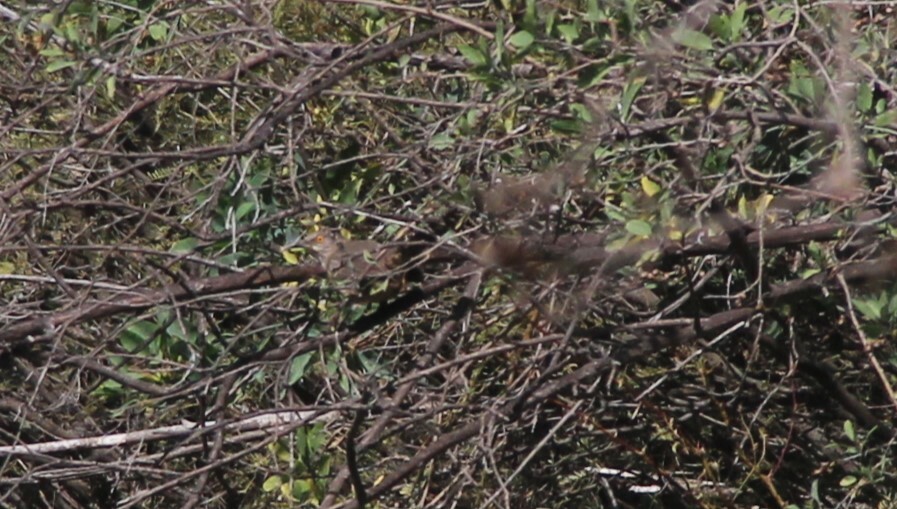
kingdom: Animalia
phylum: Chordata
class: Aves
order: Passeriformes
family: Mimidae
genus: Toxostoma
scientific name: Toxostoma curvirostre
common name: Curve-billed thrasher
